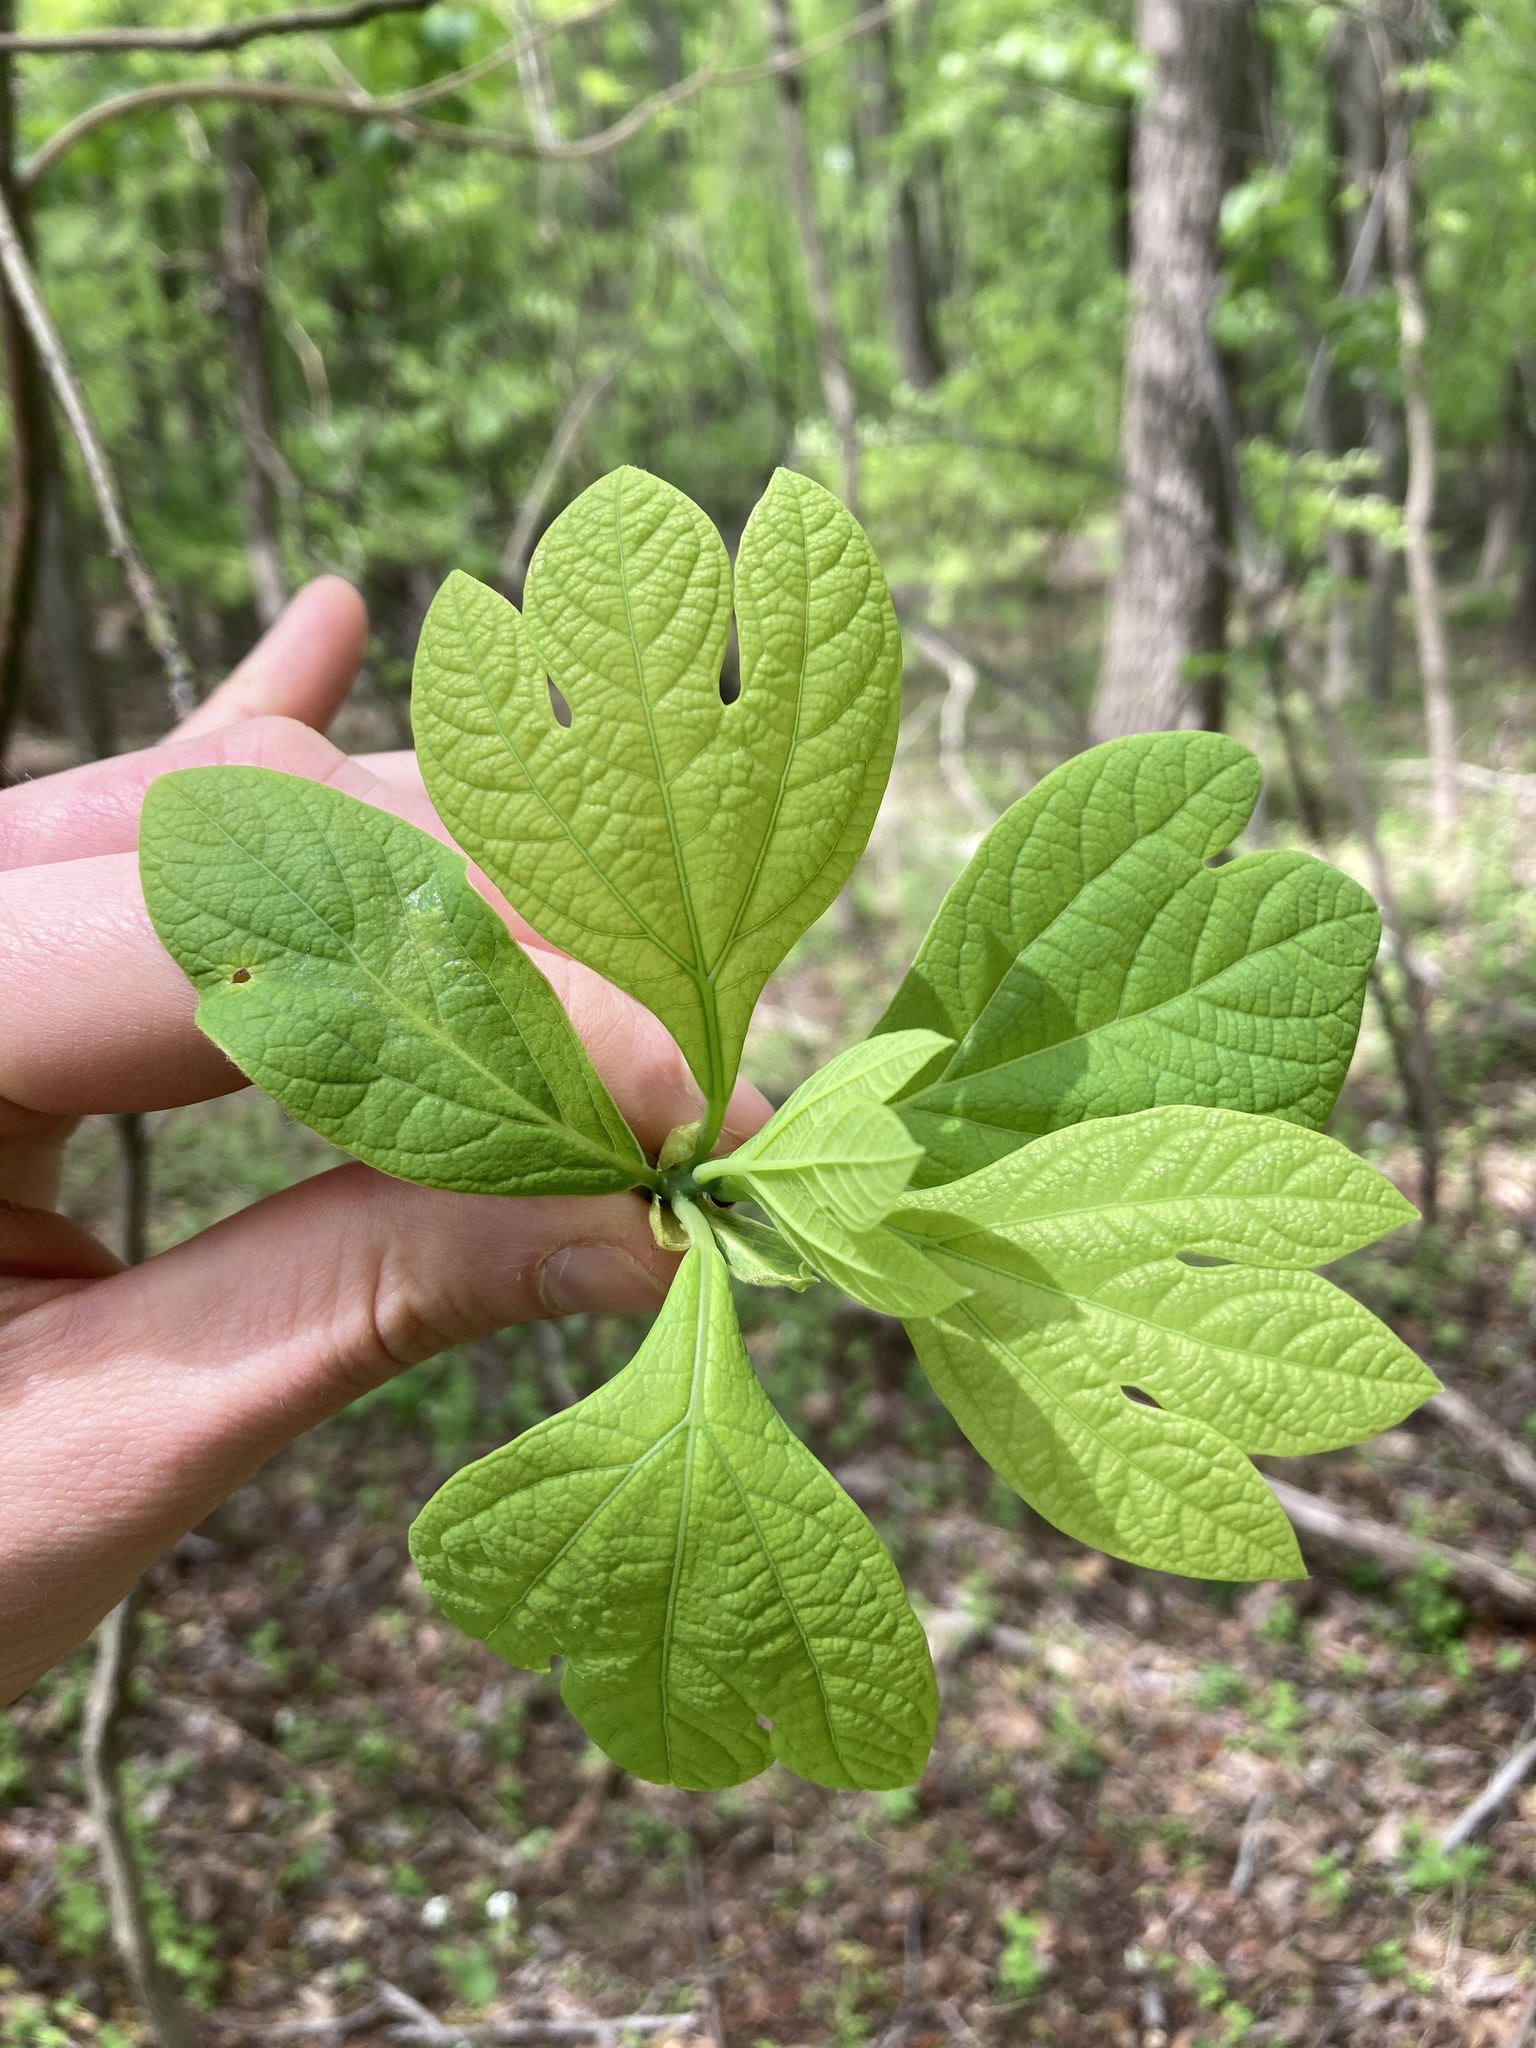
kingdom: Plantae
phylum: Tracheophyta
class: Magnoliopsida
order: Laurales
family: Lauraceae
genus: Sassafras
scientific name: Sassafras albidum
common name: Sassafras
